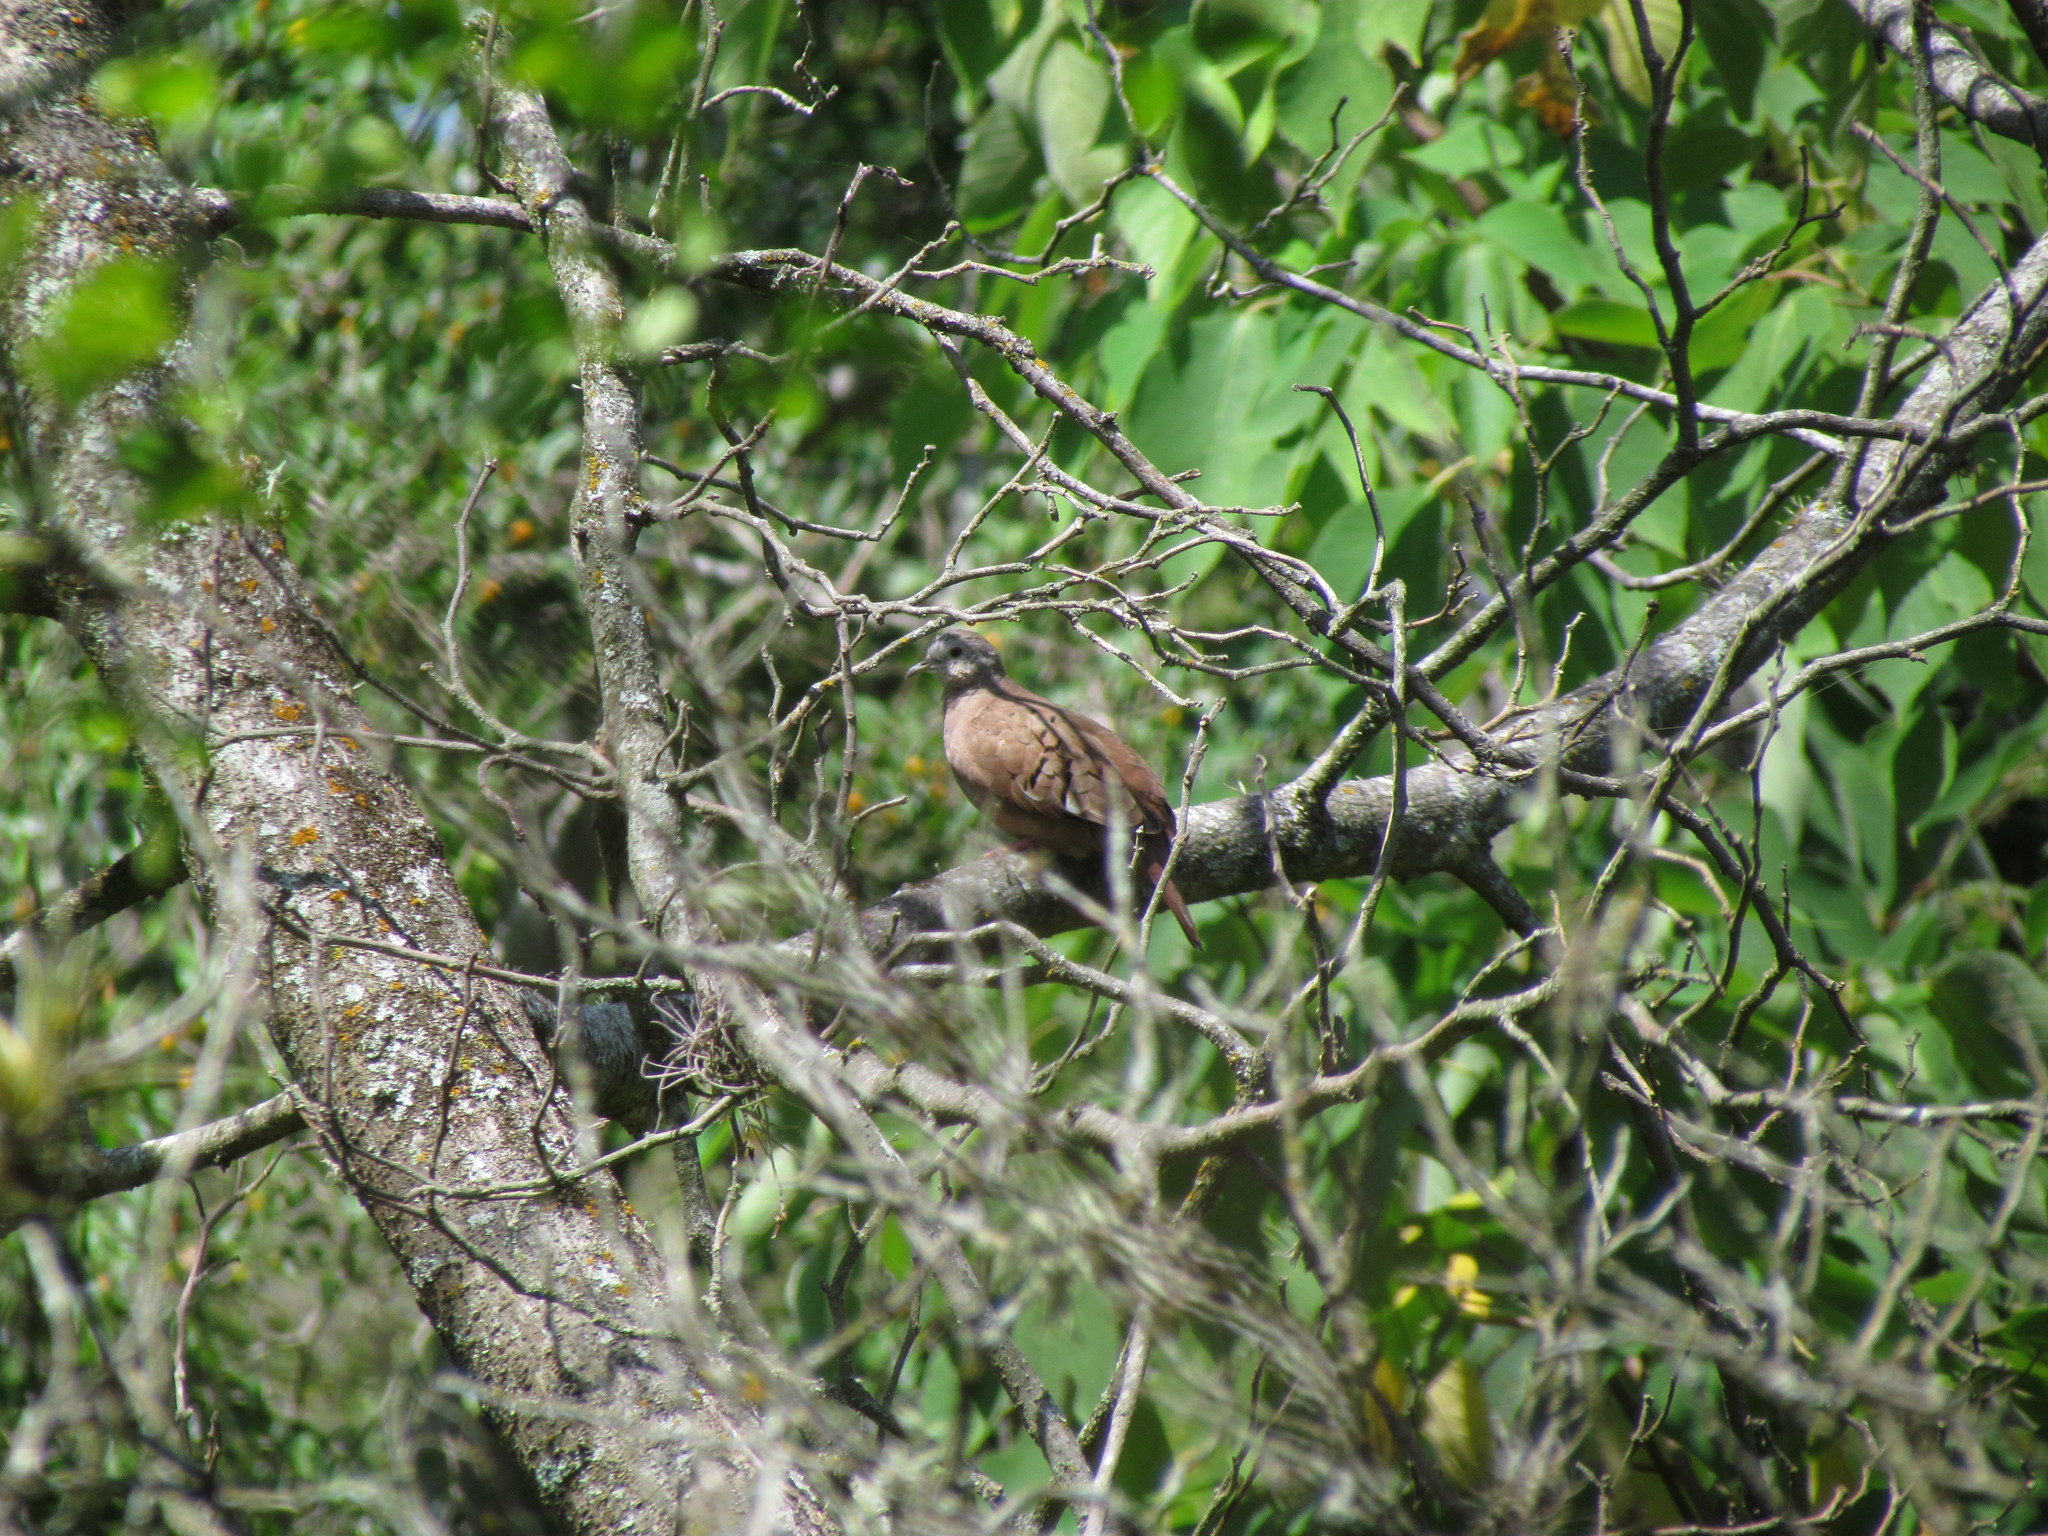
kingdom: Animalia
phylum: Chordata
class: Aves
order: Columbiformes
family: Columbidae
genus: Columbina
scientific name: Columbina talpacoti
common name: Ruddy ground dove
